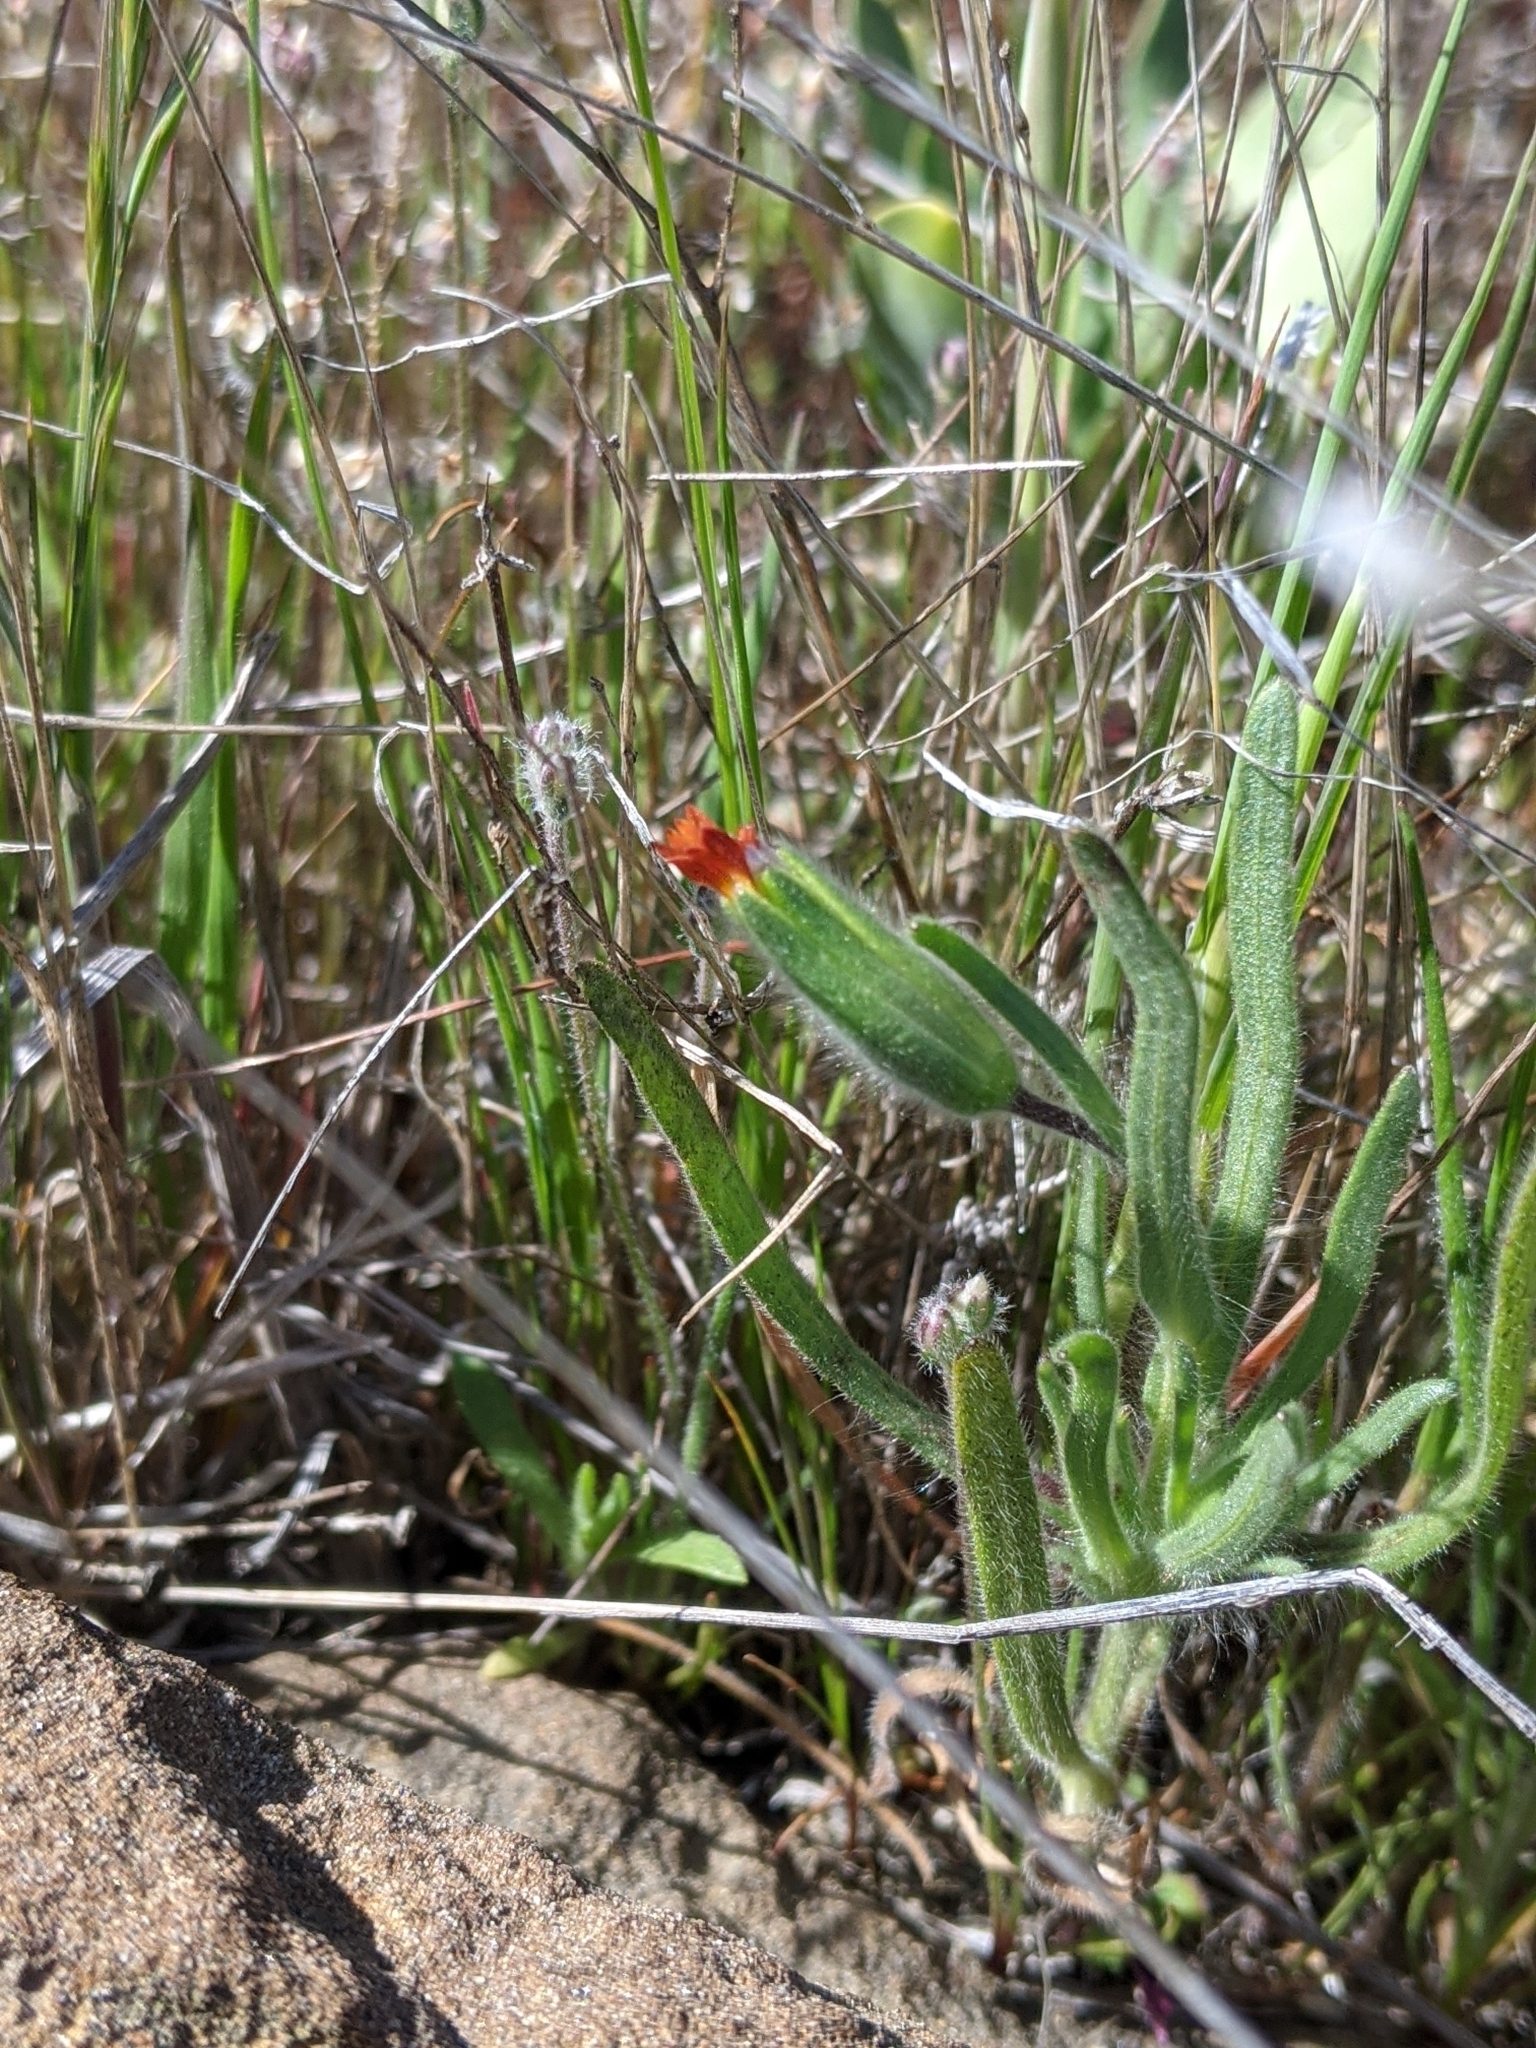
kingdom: Plantae
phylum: Tracheophyta
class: Magnoliopsida
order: Asterales
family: Asteraceae
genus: Achyrachaena
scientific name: Achyrachaena mollis
